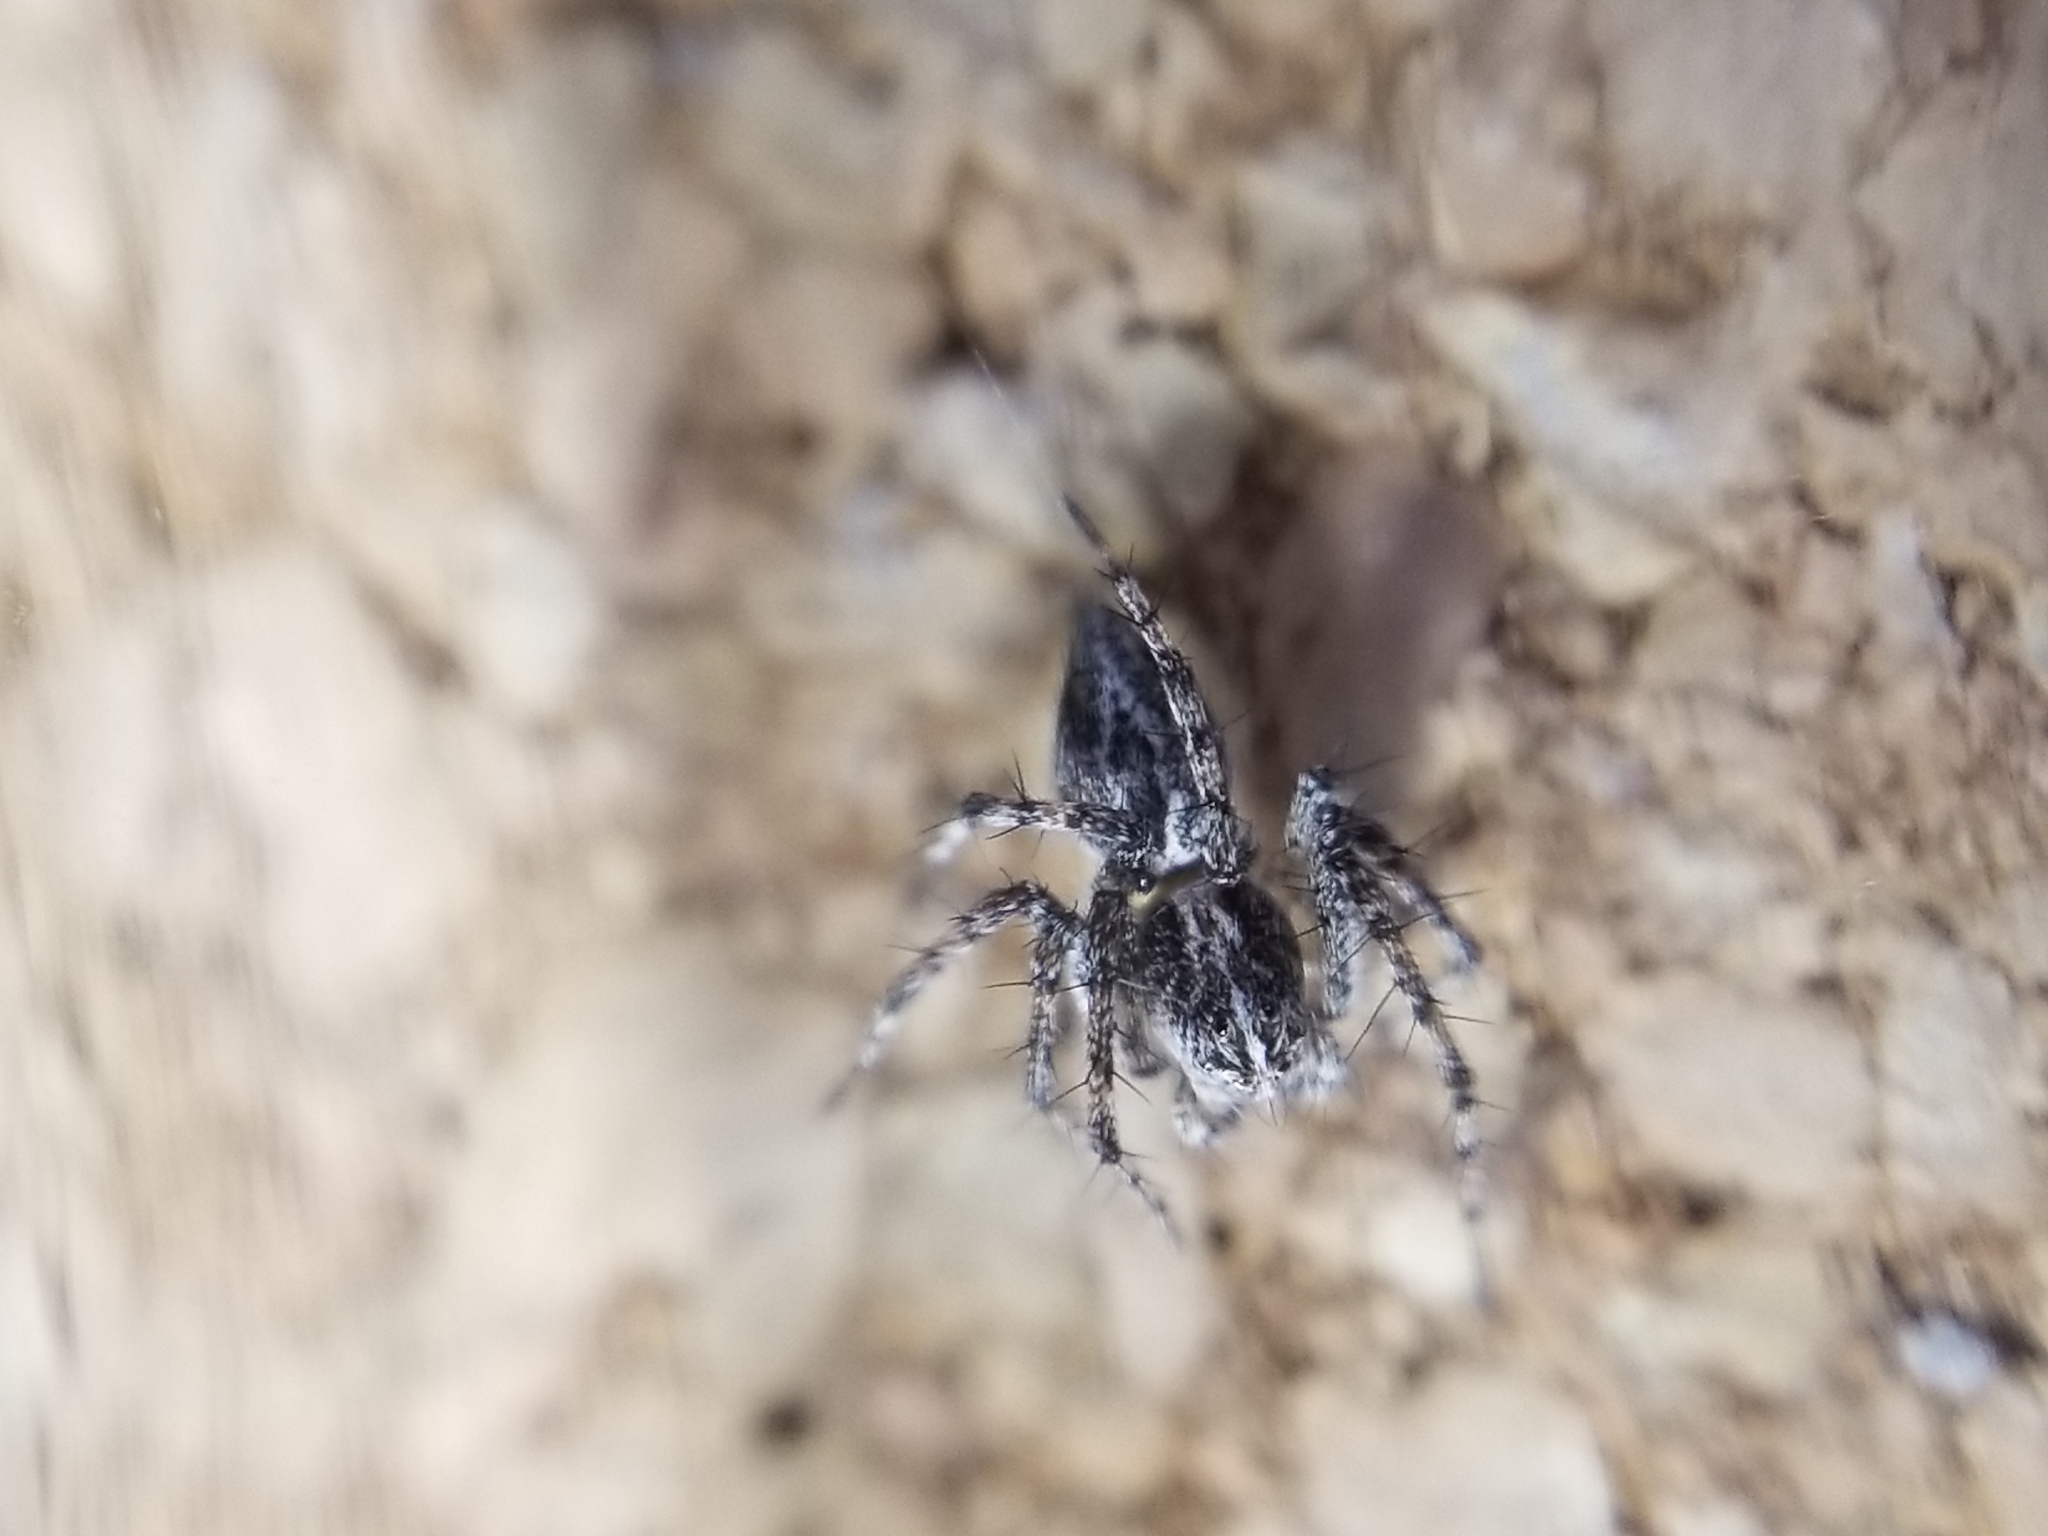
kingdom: Animalia
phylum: Arthropoda
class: Arachnida
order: Araneae
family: Oxyopidae
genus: Oxyopes
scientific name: Oxyopes scalaris
